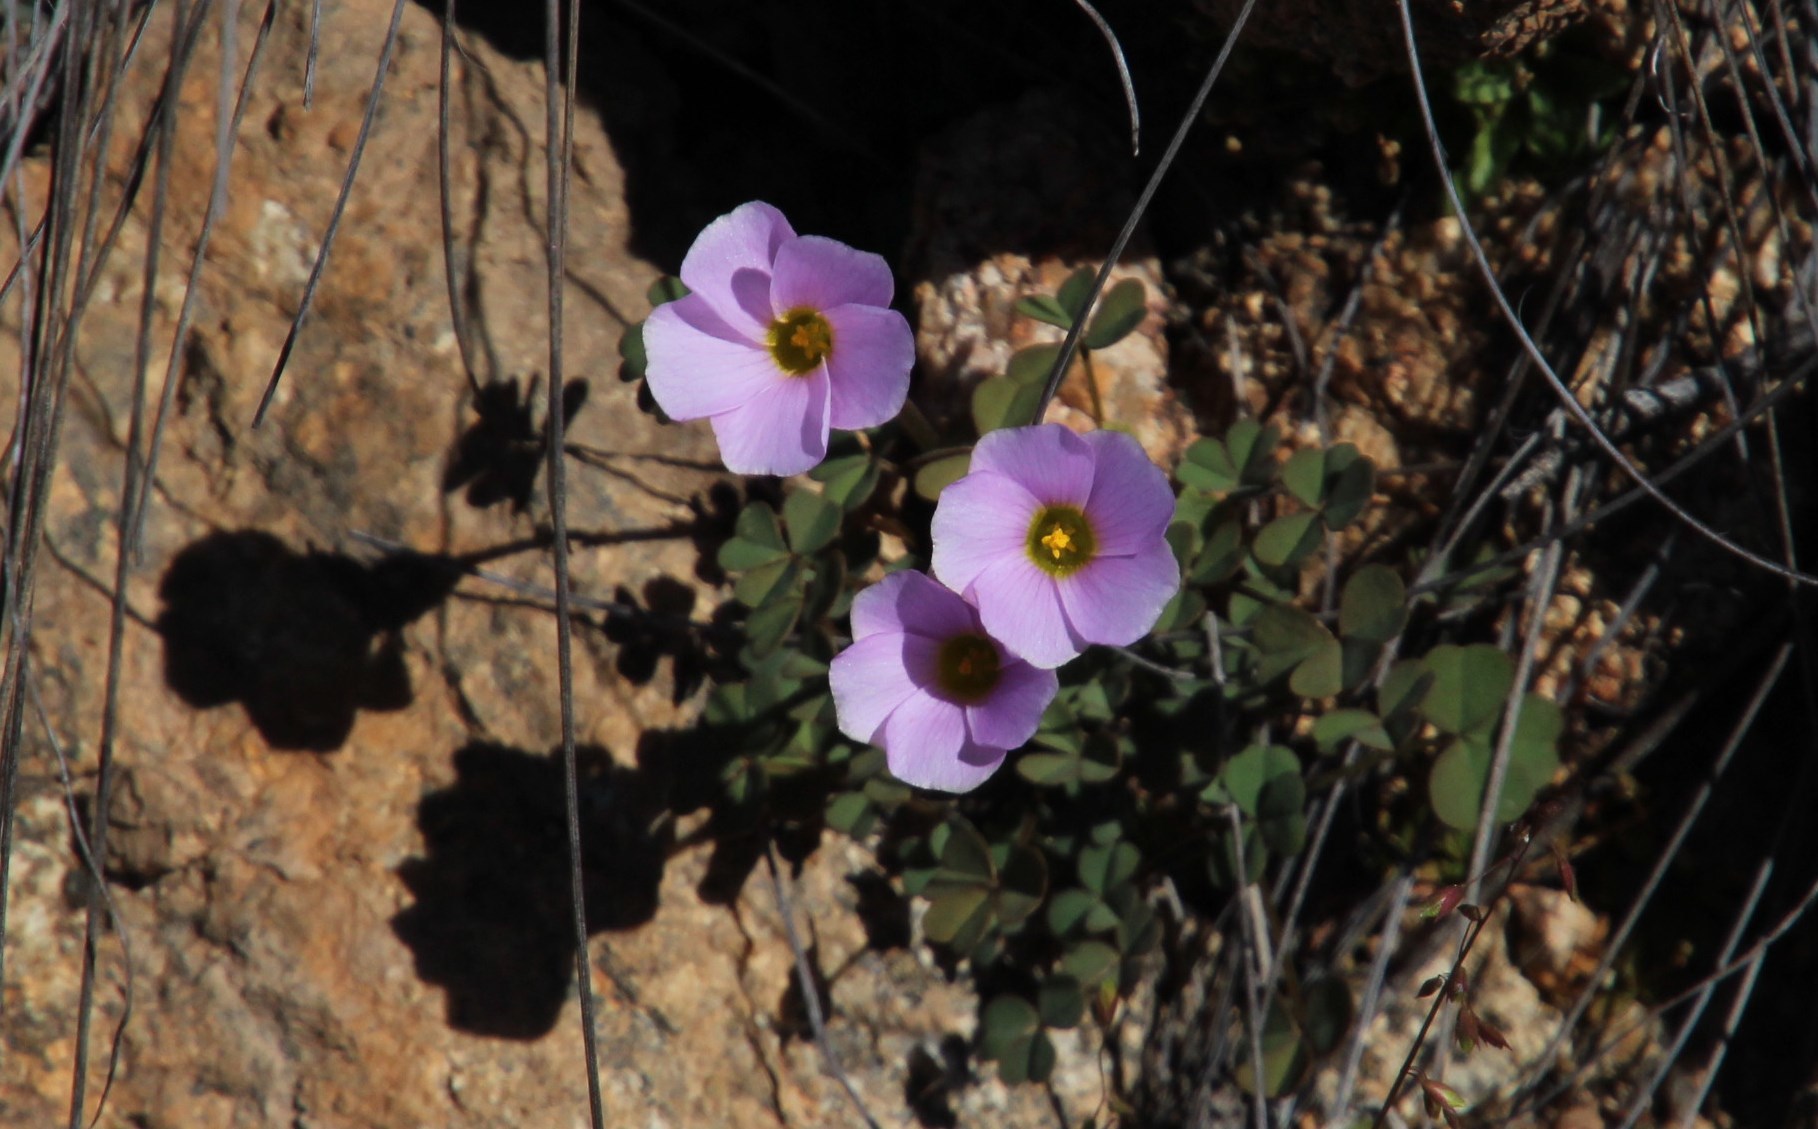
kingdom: Plantae
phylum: Tracheophyta
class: Magnoliopsida
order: Oxalidales
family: Oxalidaceae
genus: Oxalis
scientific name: Oxalis obtusa
